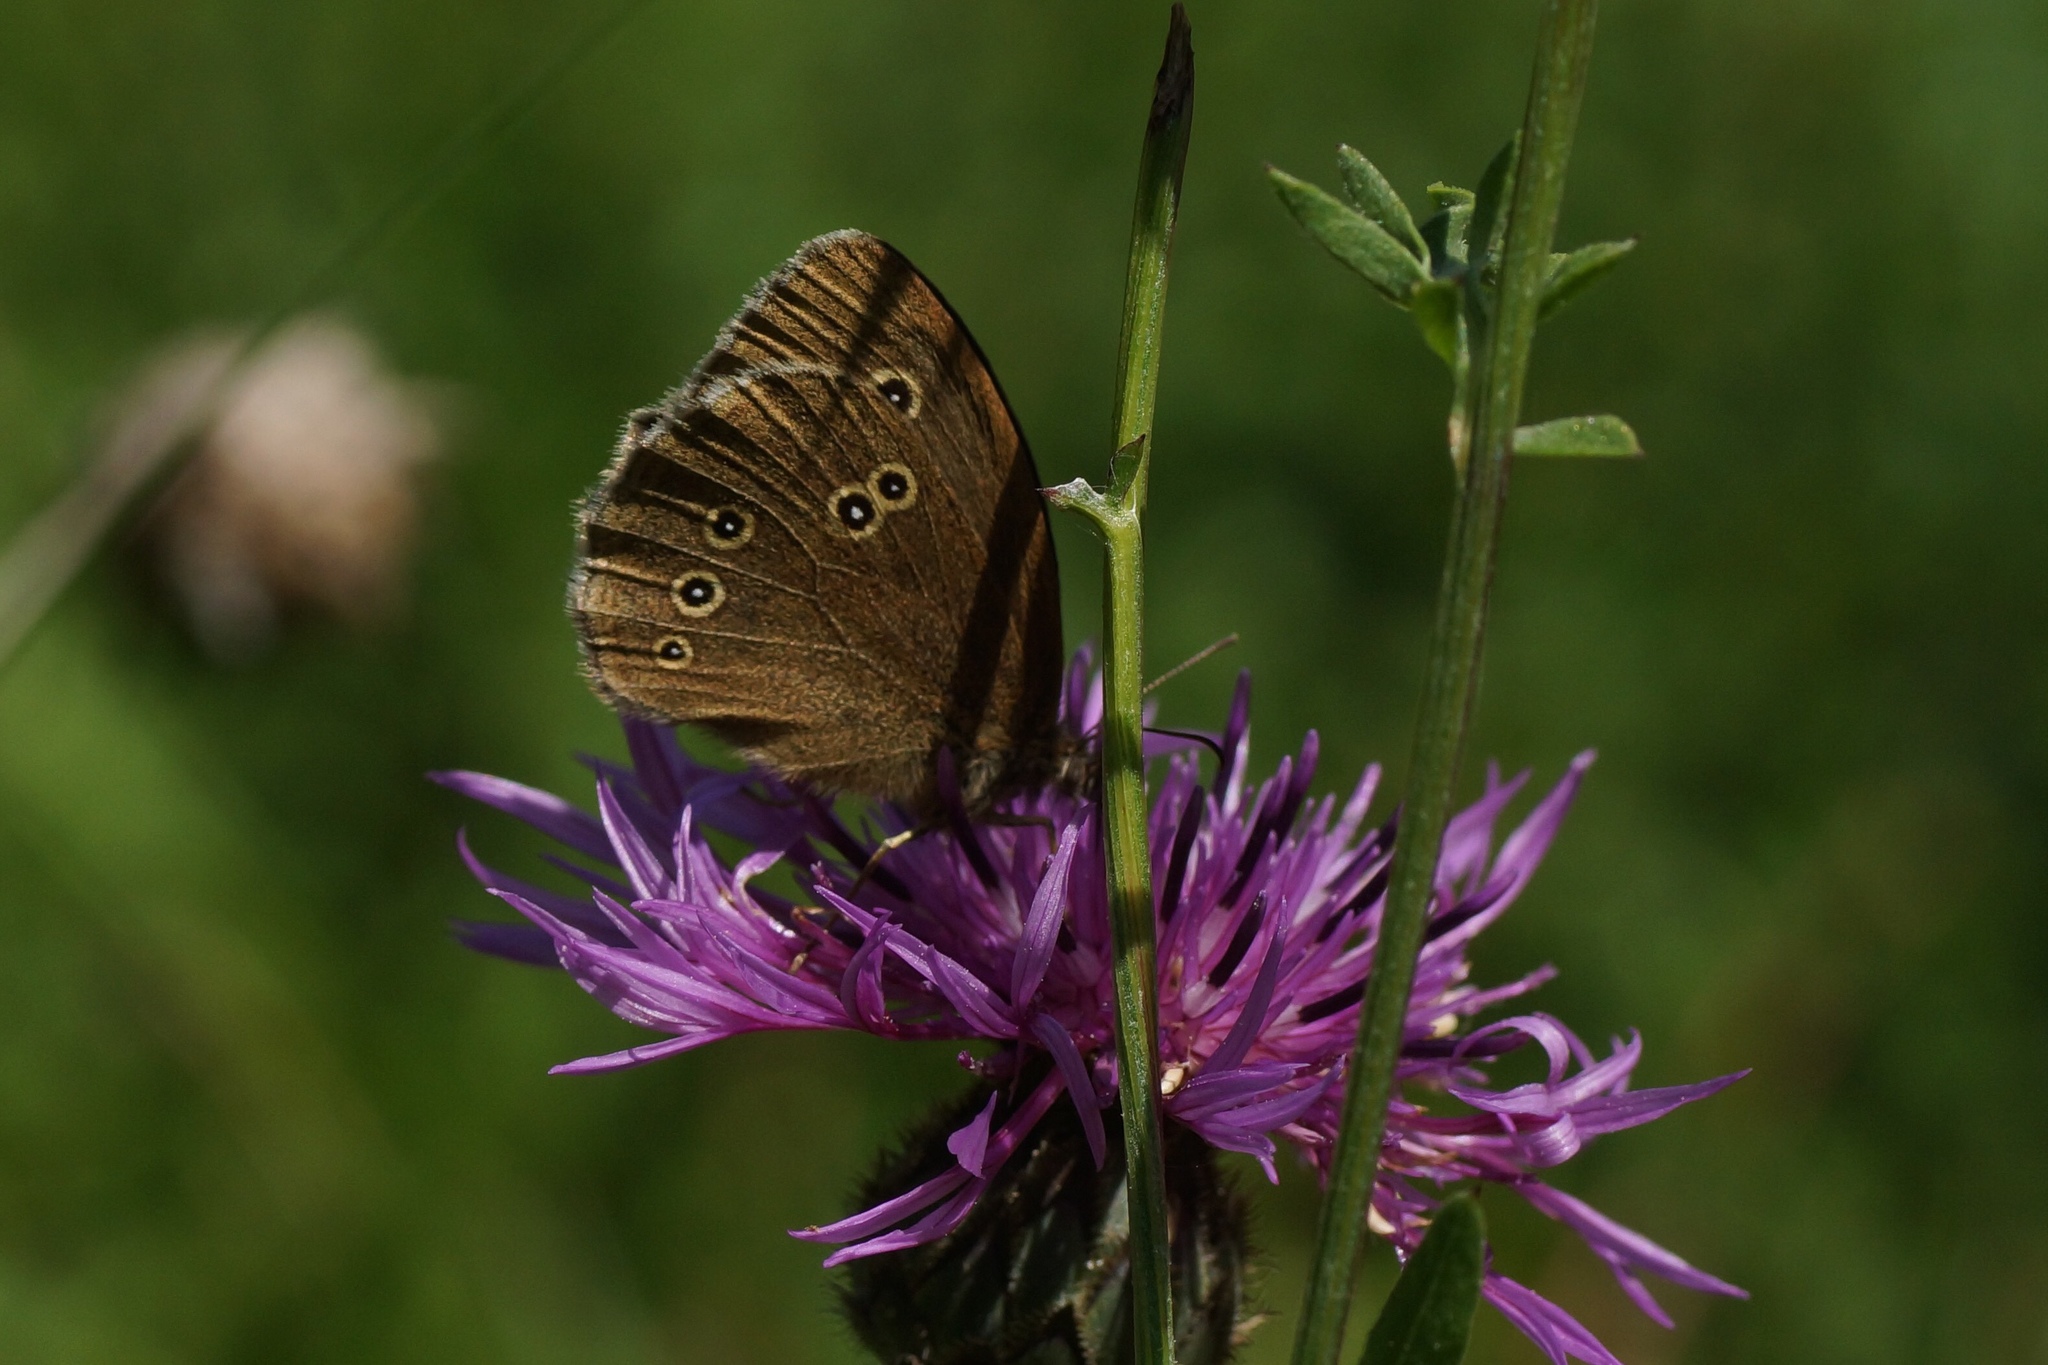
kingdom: Animalia
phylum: Arthropoda
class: Insecta
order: Lepidoptera
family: Nymphalidae
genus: Aphantopus
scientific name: Aphantopus hyperantus
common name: Ringlet
